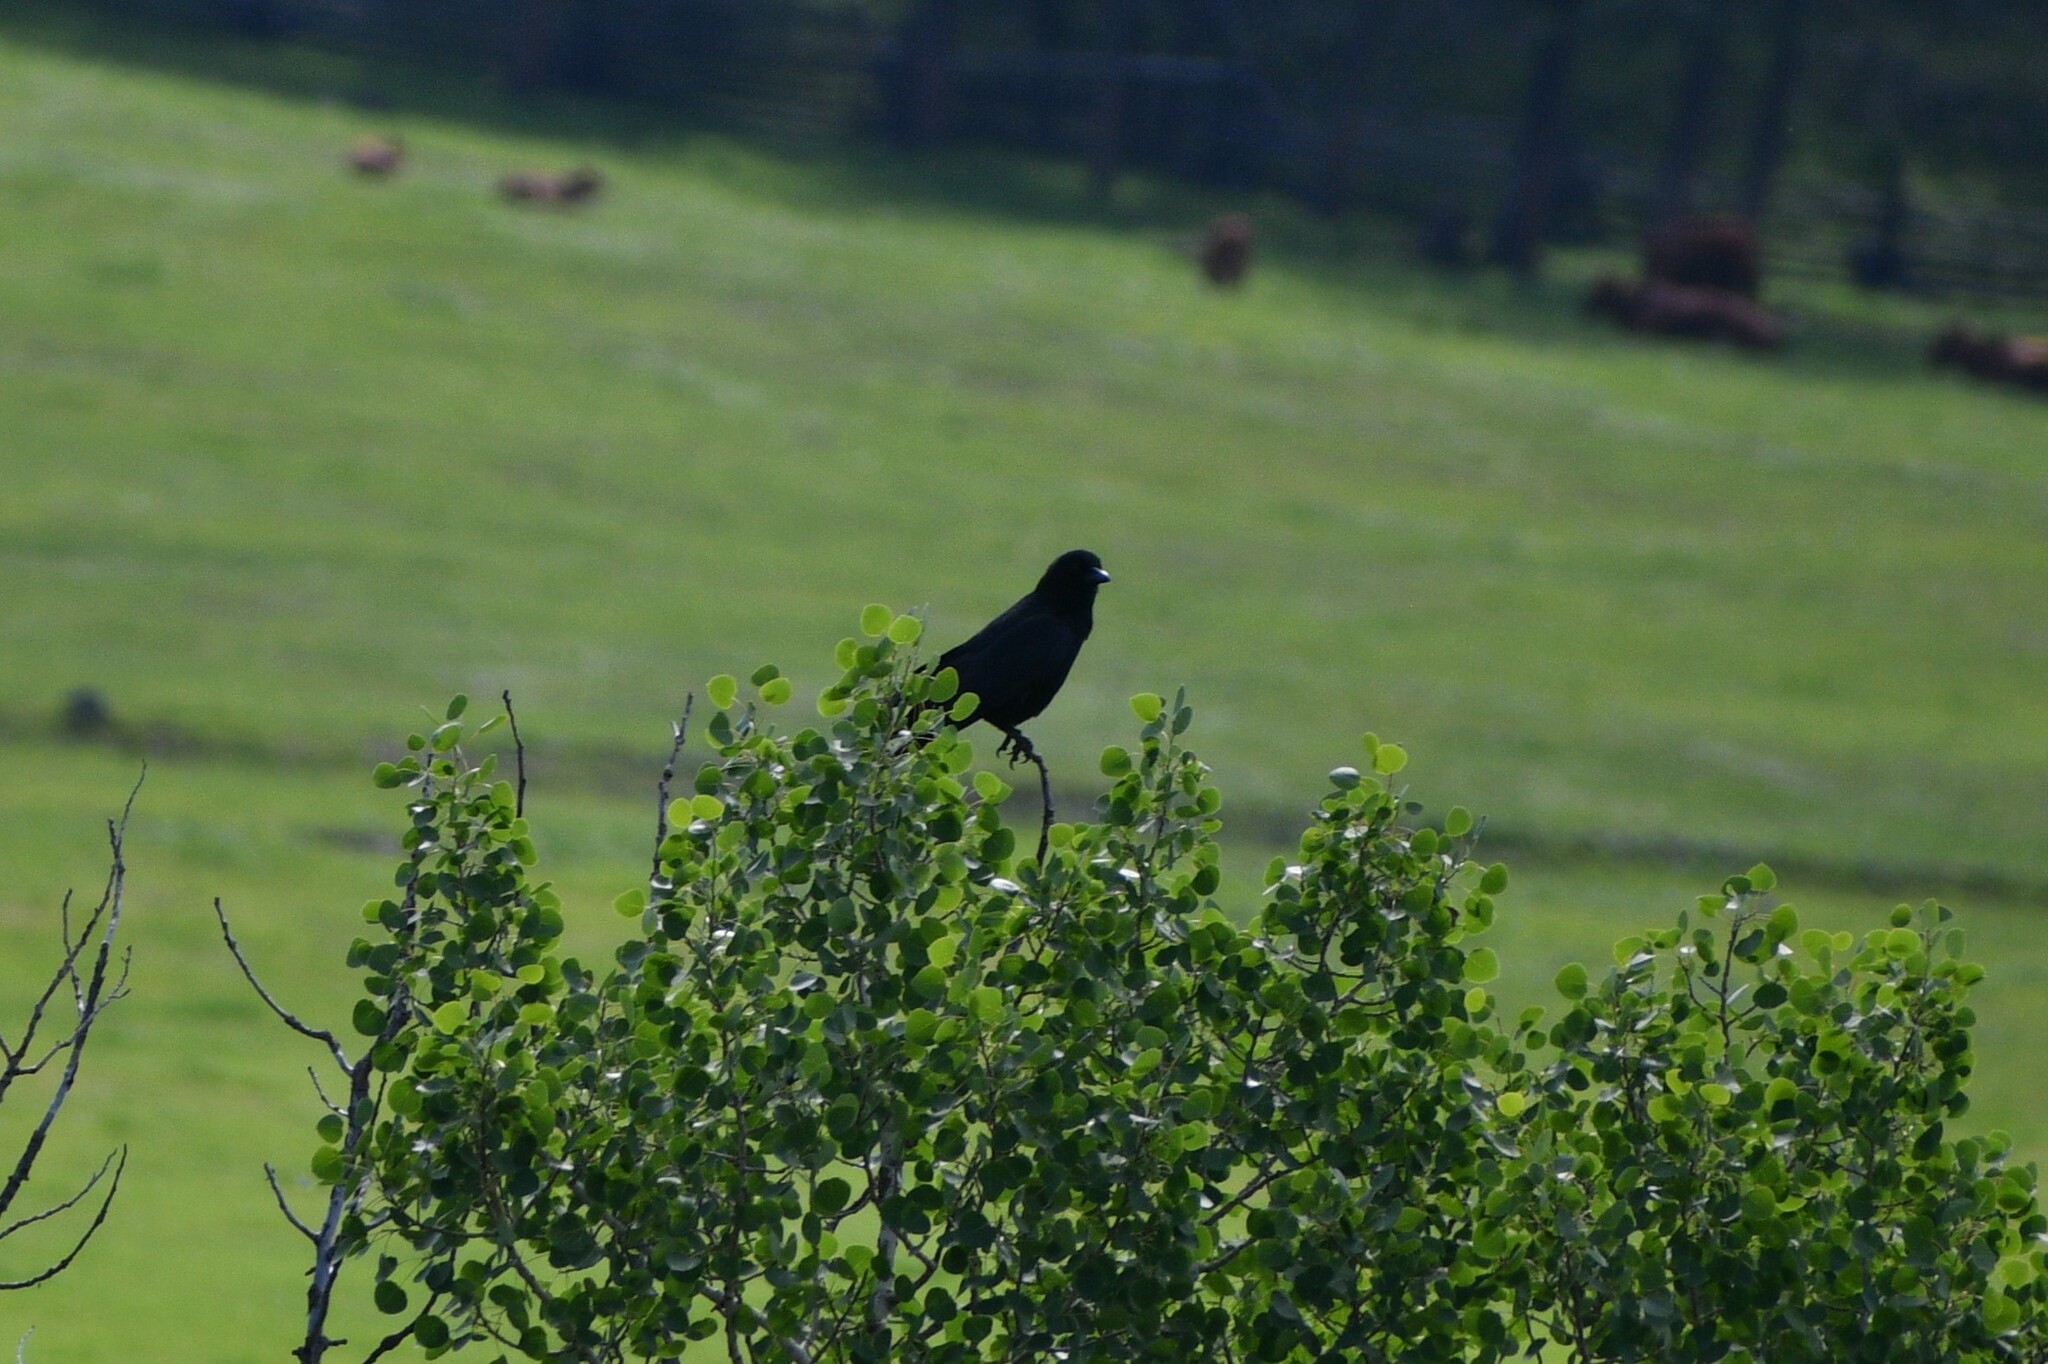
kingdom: Animalia
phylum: Chordata
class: Aves
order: Passeriformes
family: Corvidae
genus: Corvus
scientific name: Corvus brachyrhynchos
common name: American crow
